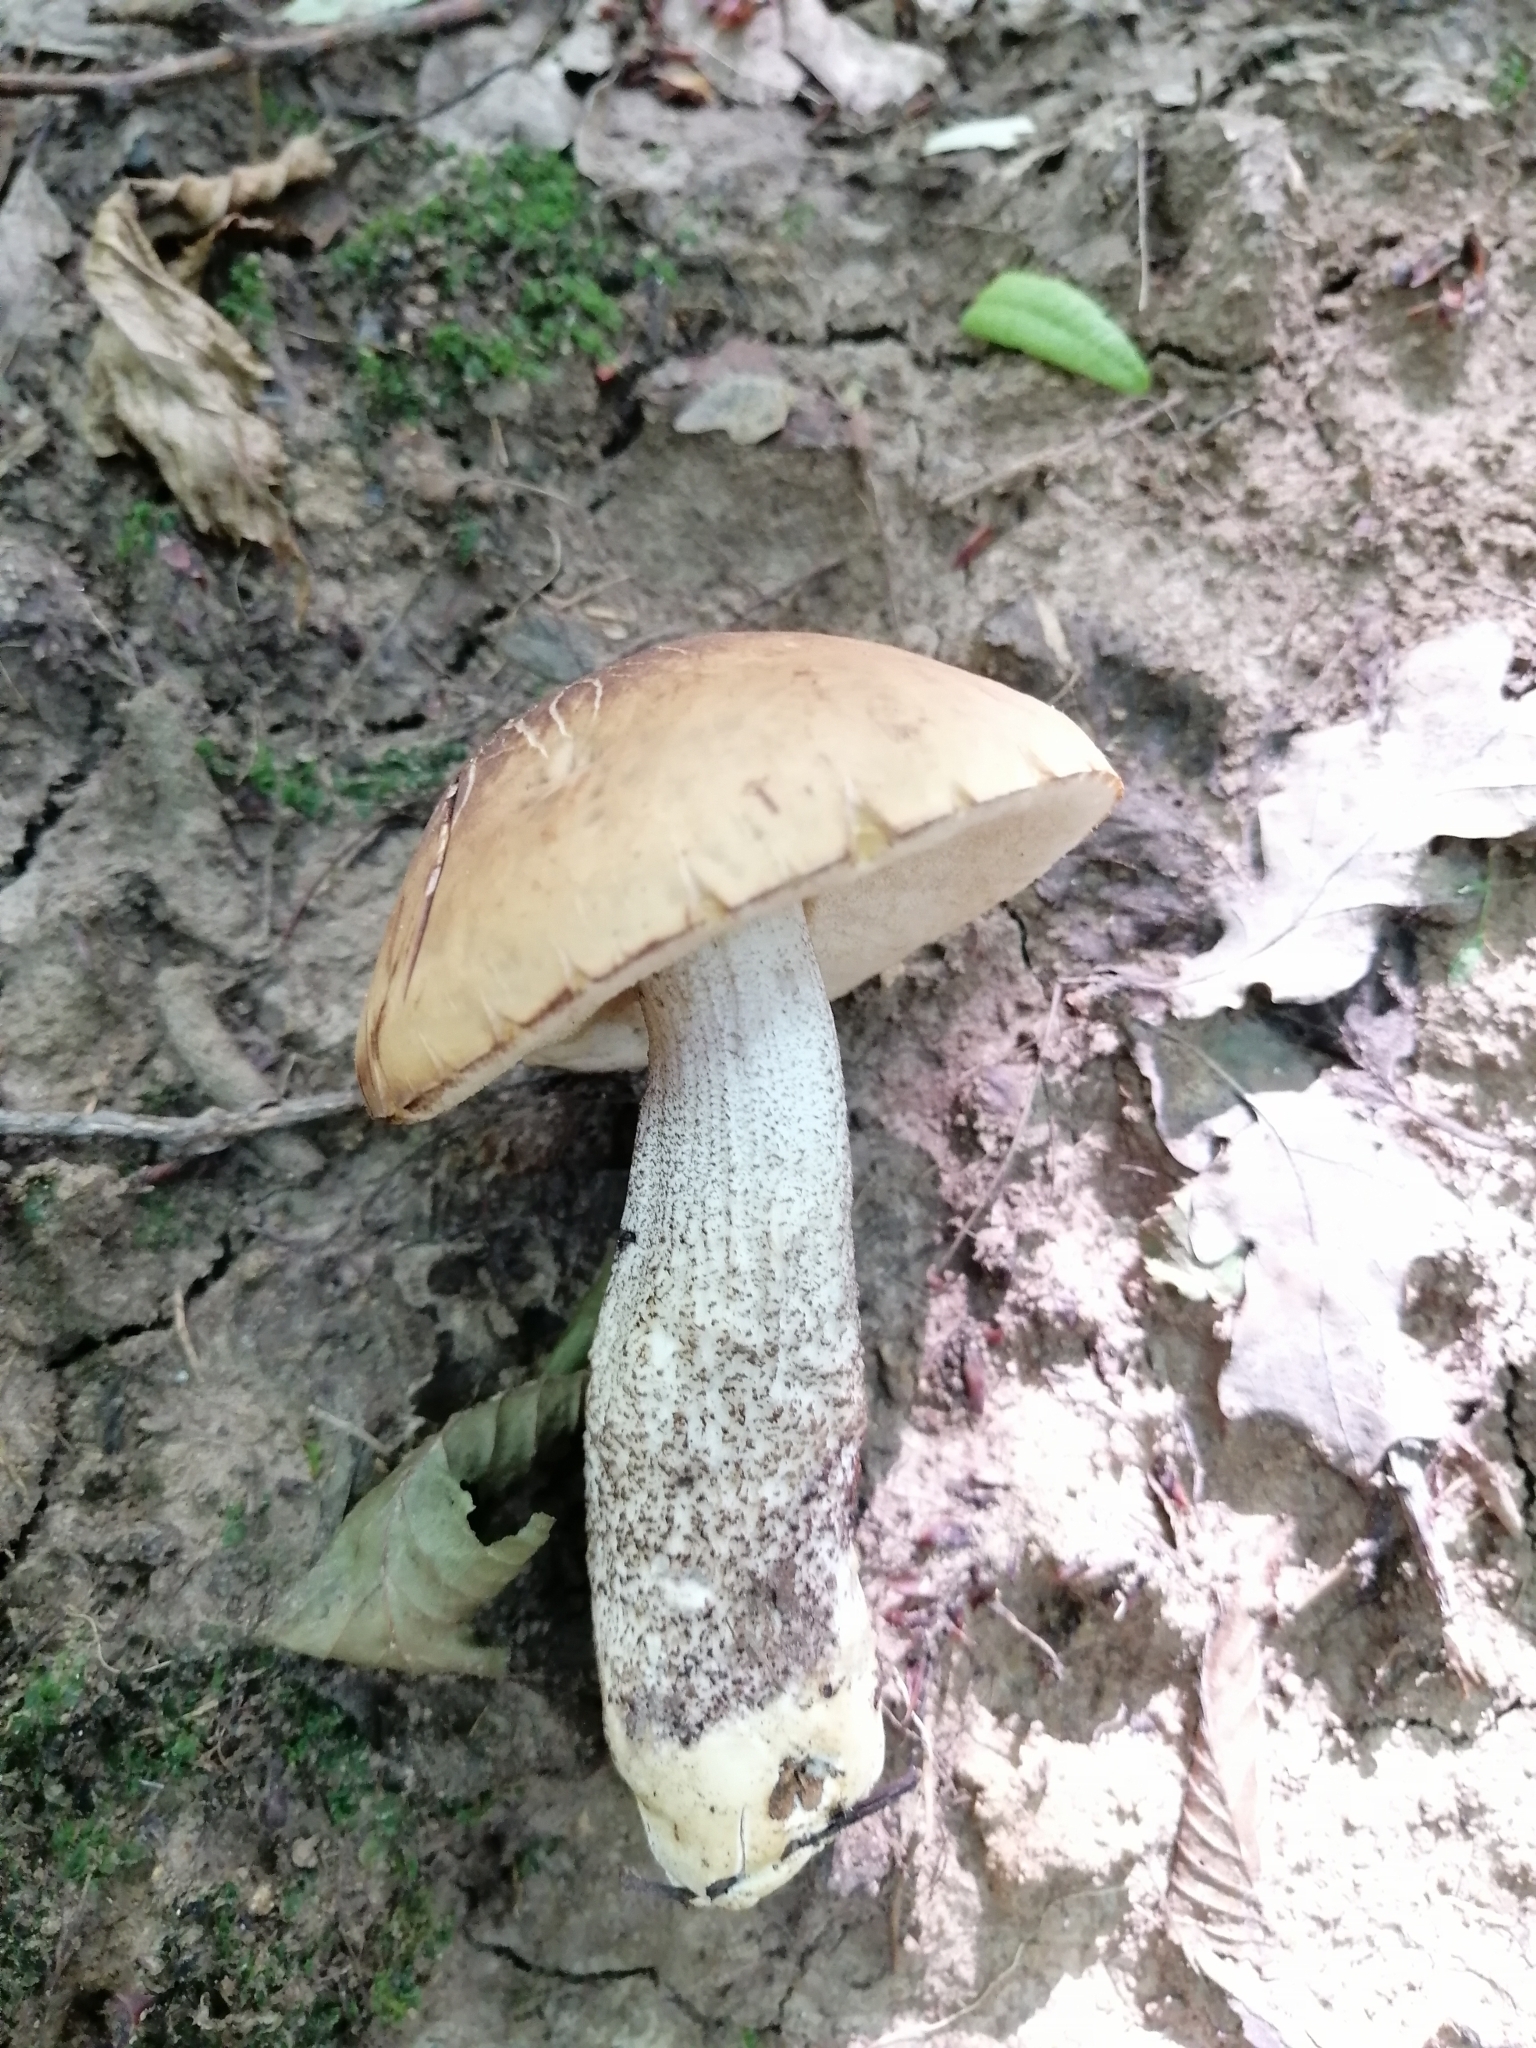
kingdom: Fungi
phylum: Basidiomycota
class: Agaricomycetes
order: Boletales
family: Boletaceae
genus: Leccinellum
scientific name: Leccinellum pseudoscabrum
